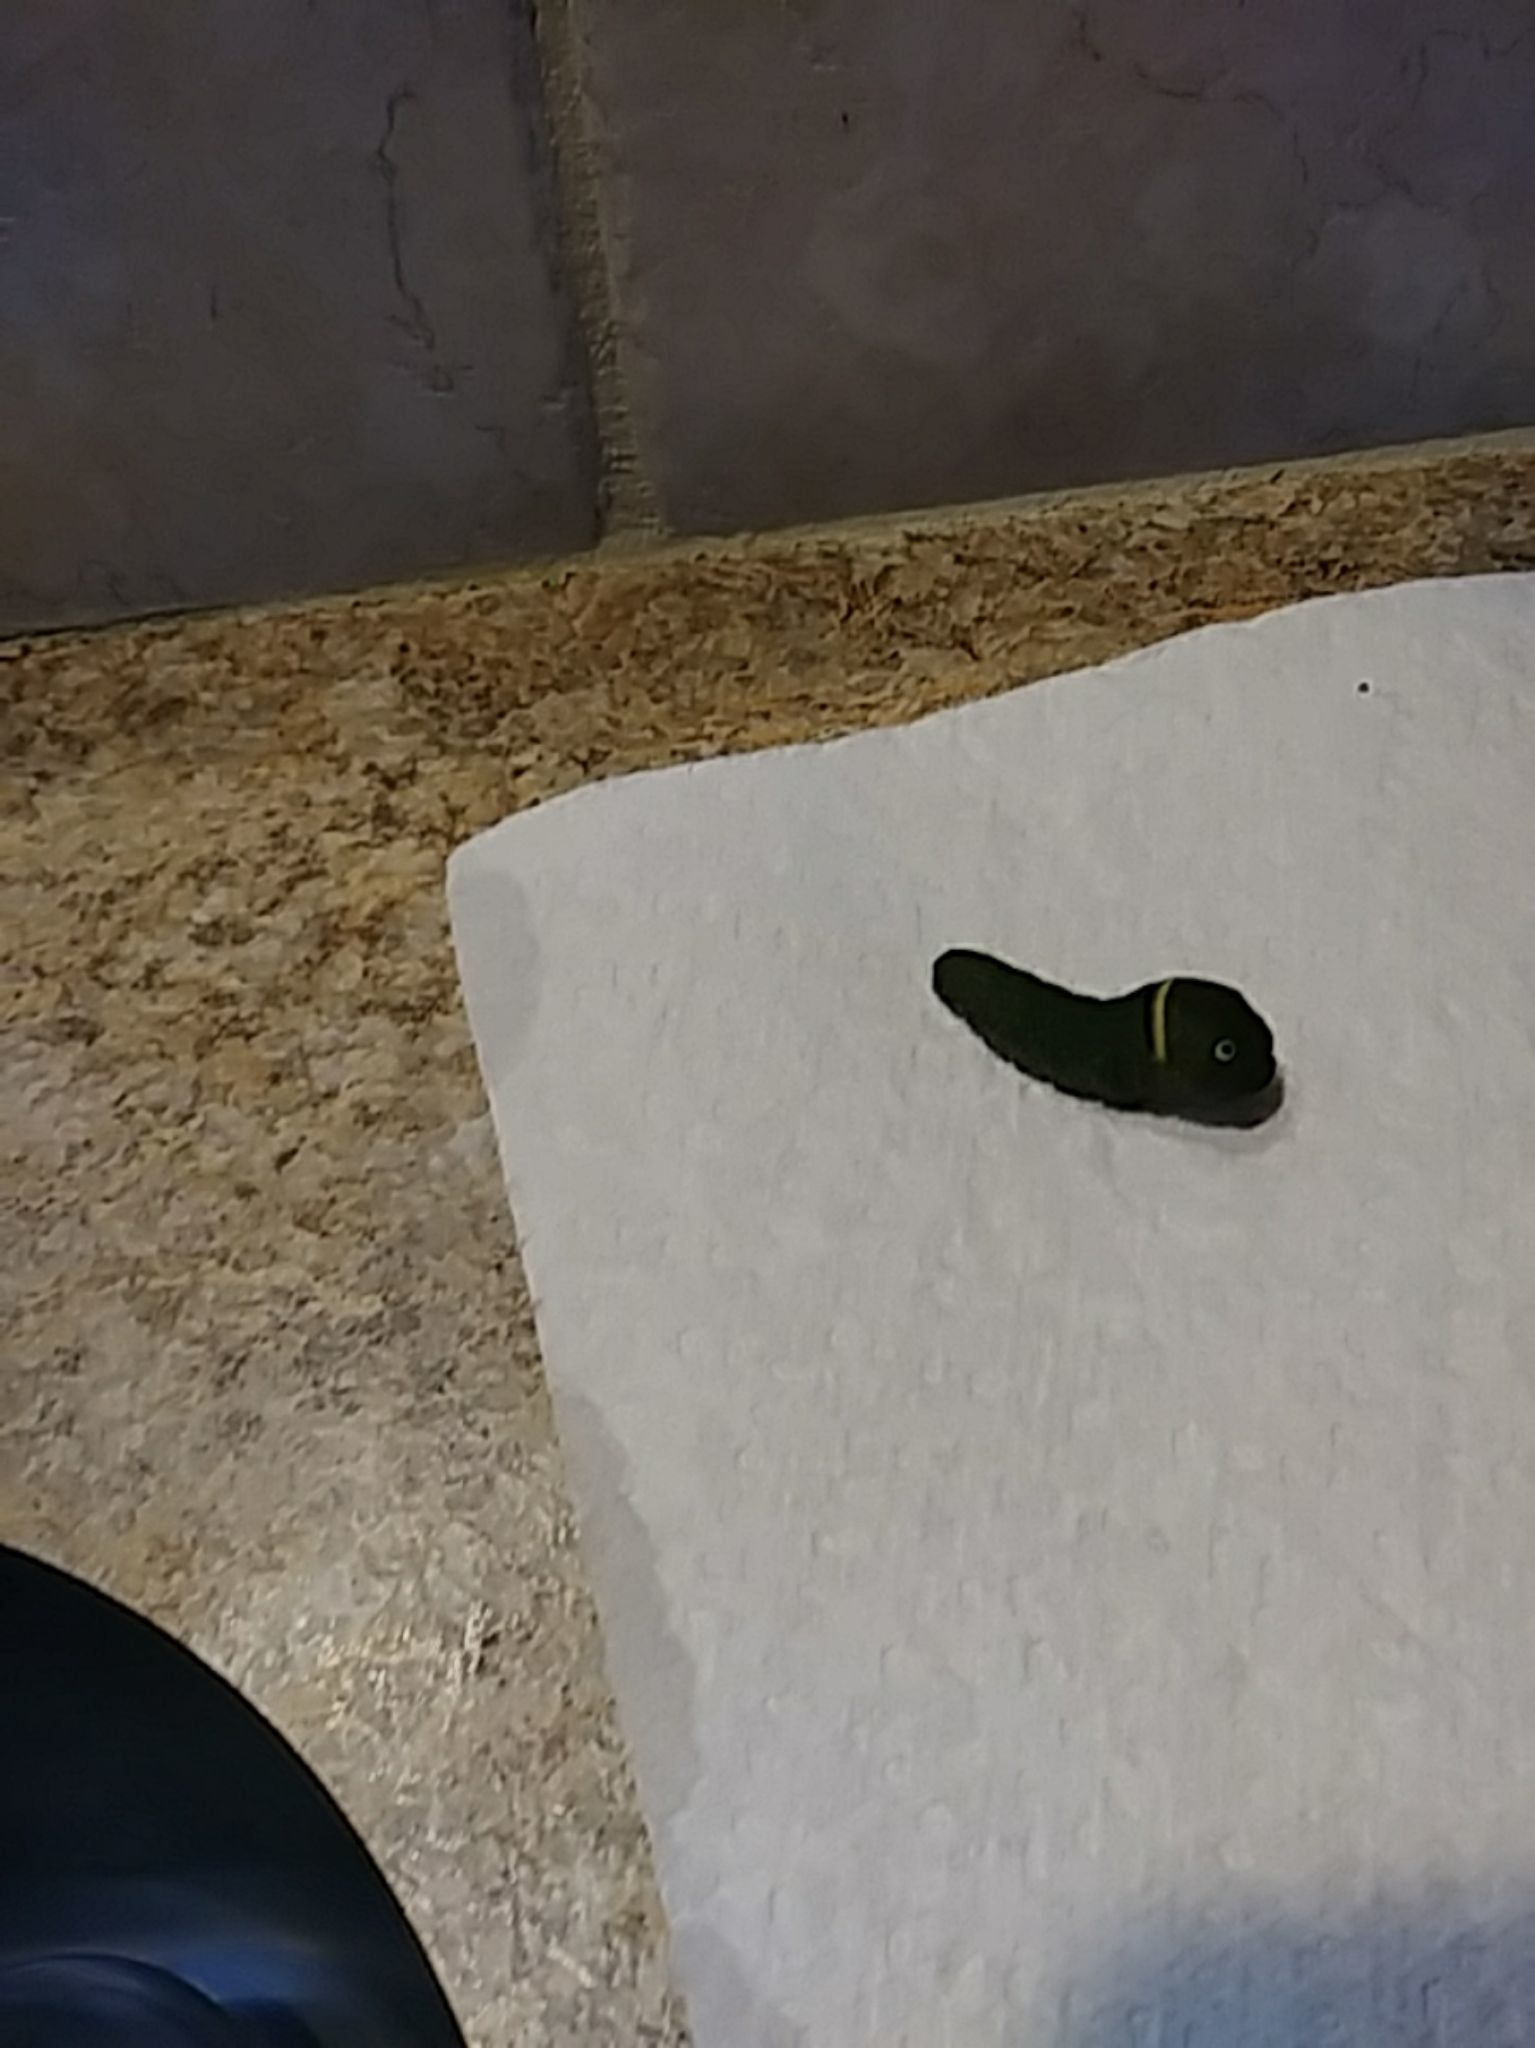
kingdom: Animalia
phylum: Arthropoda
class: Insecta
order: Lepidoptera
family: Papilionidae
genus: Papilio
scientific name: Papilio glaucus
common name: Tiger swallowtail
